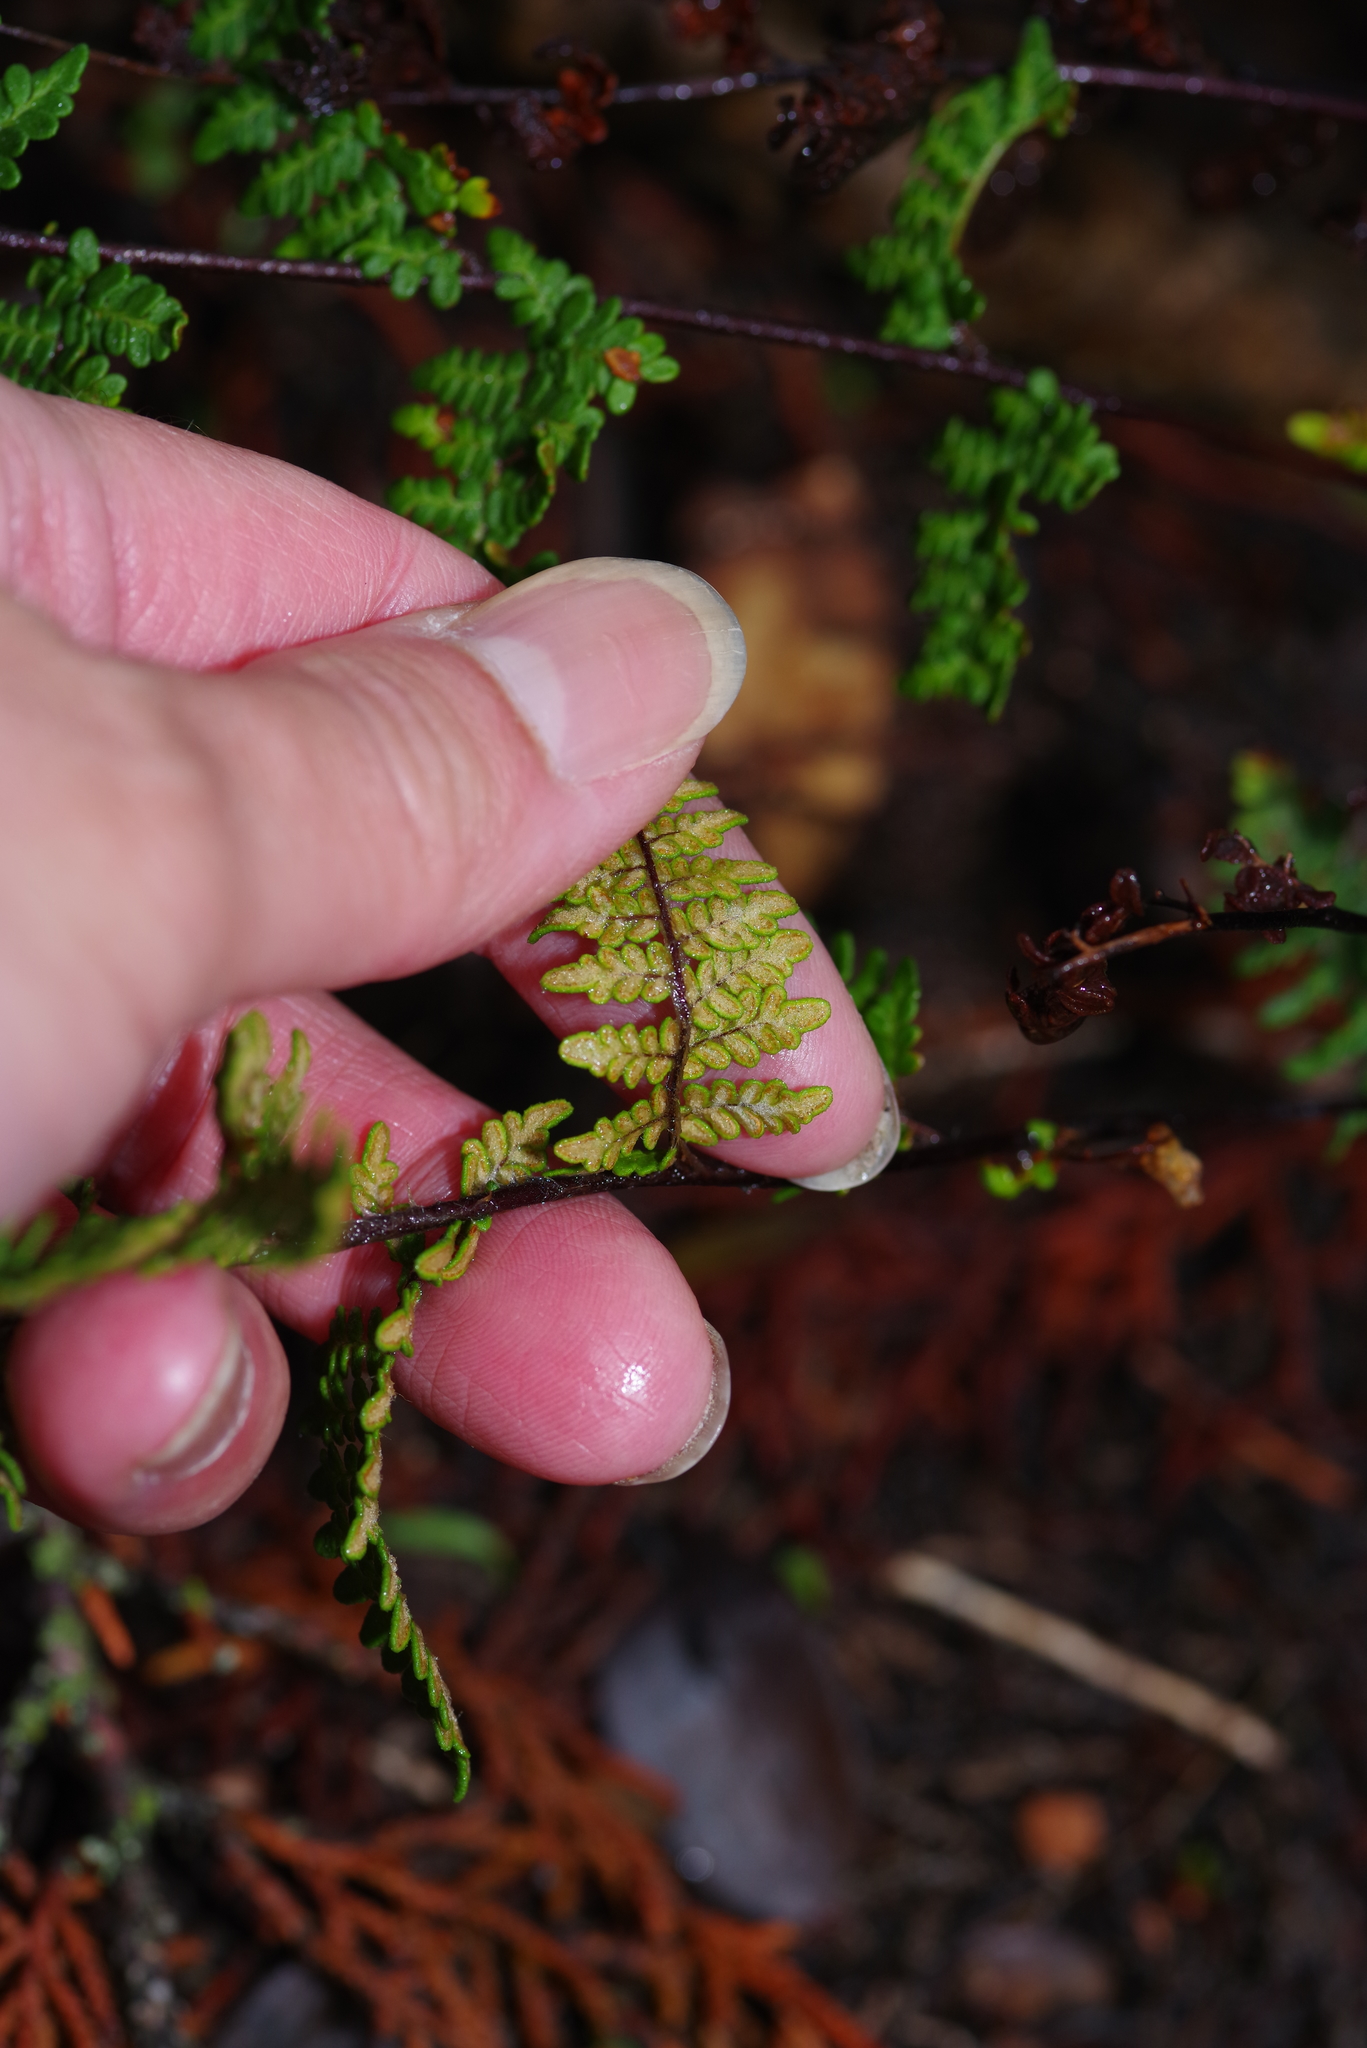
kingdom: Plantae
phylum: Tracheophyta
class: Polypodiopsida
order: Polypodiales
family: Pteridaceae
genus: Myriopteris
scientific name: Myriopteris tomentosa
